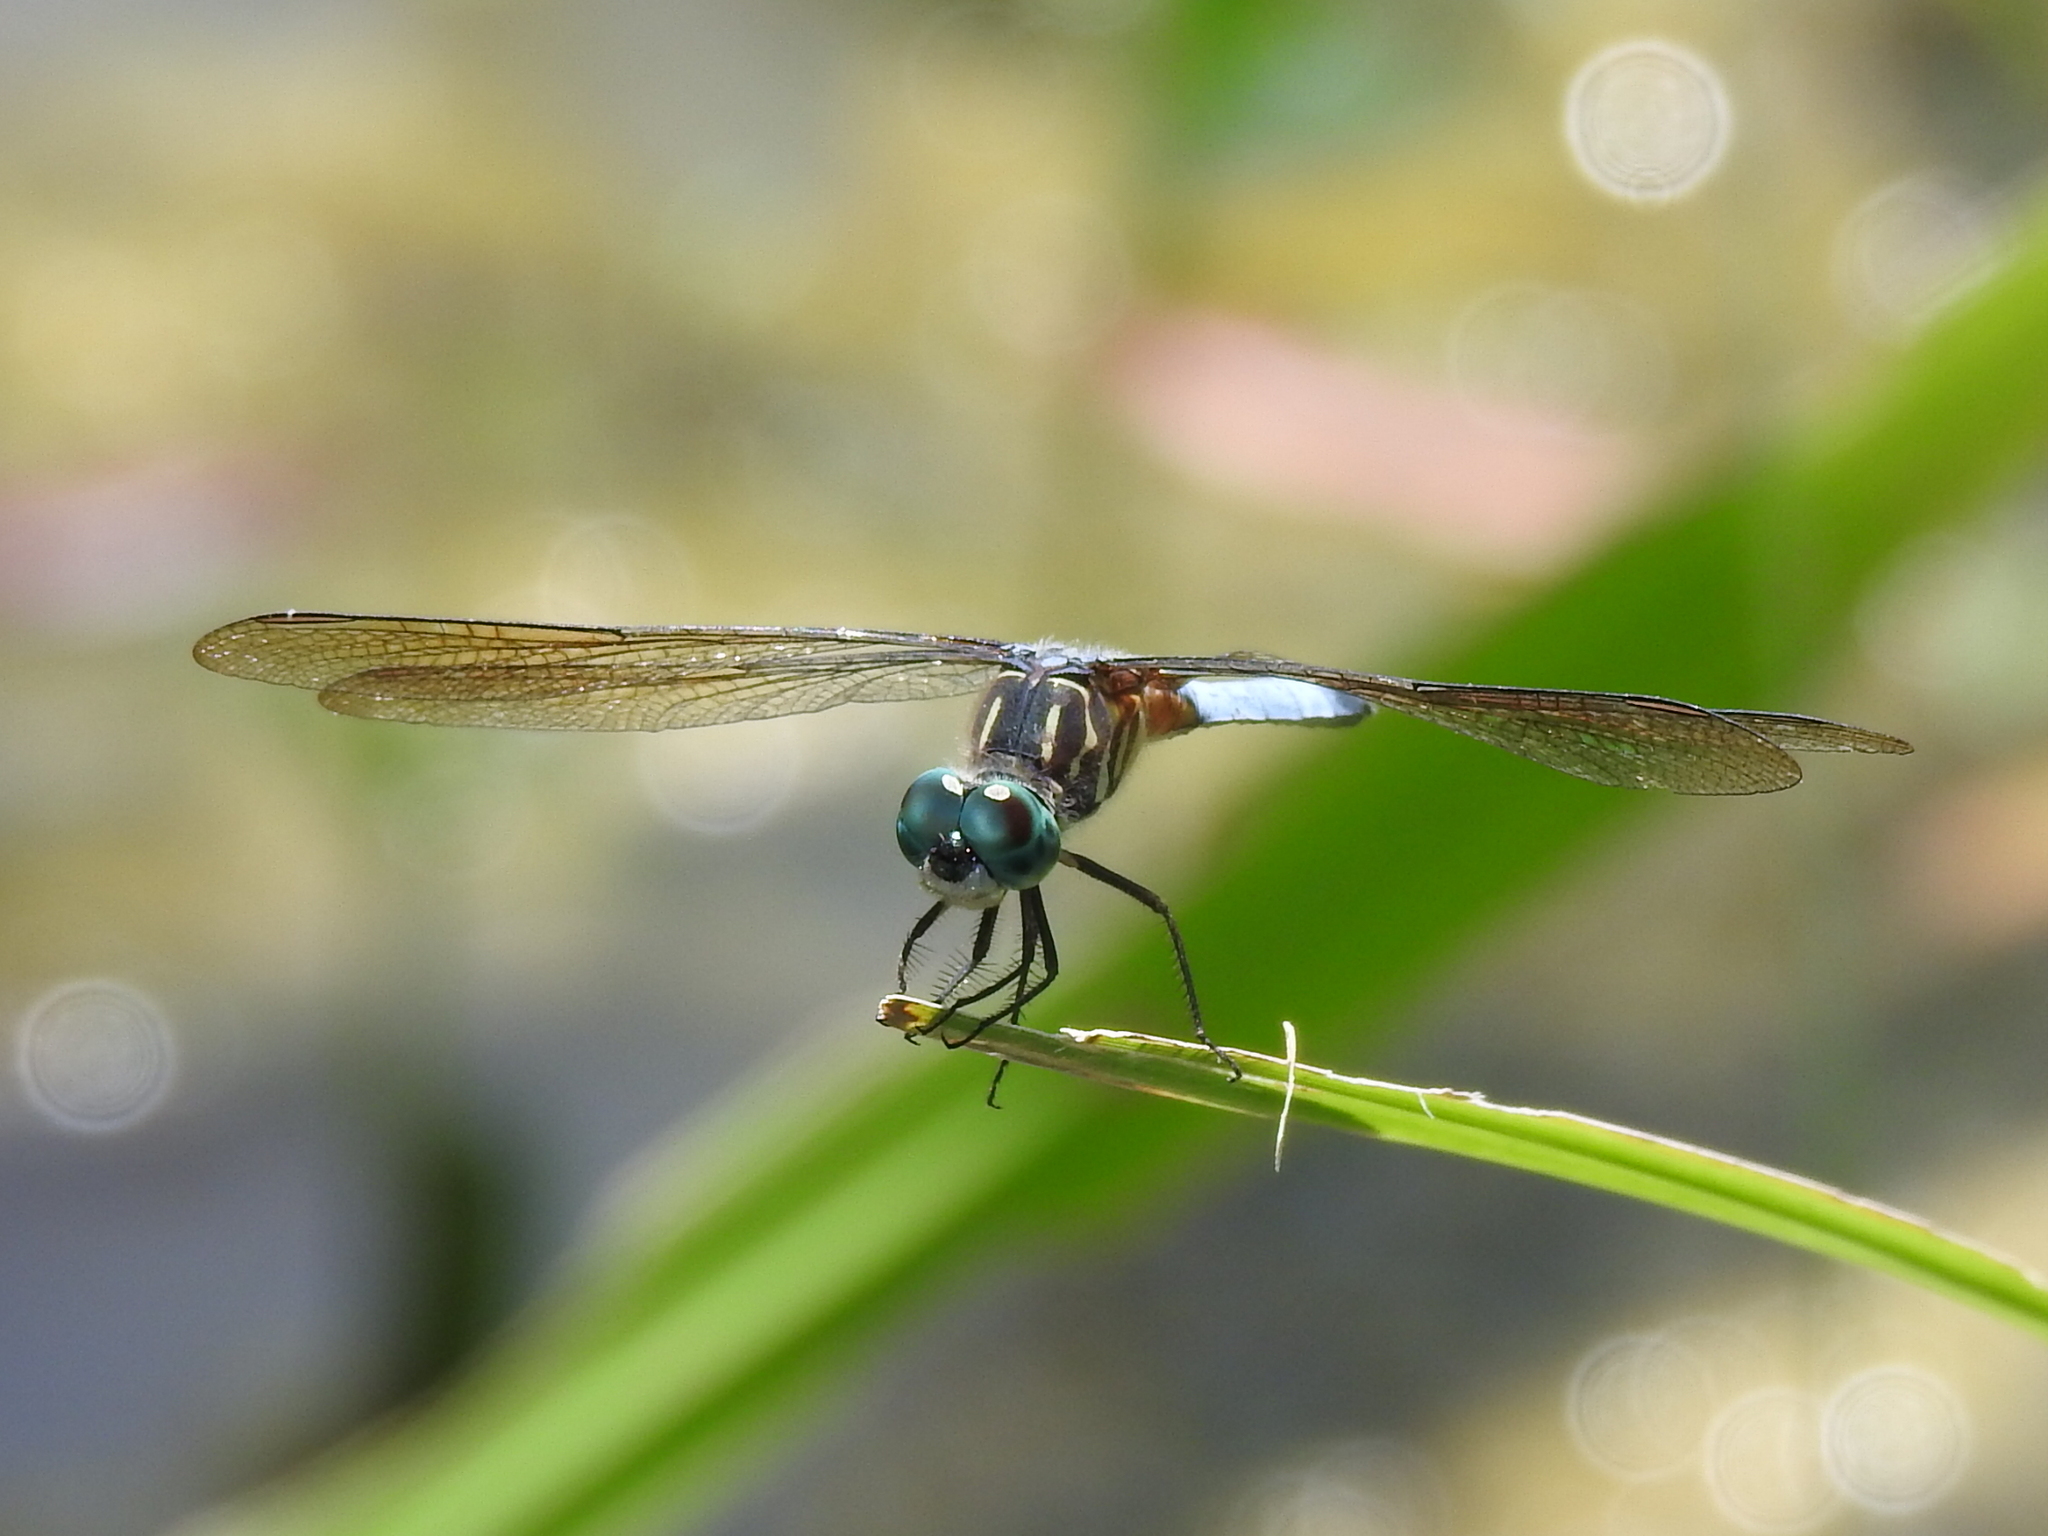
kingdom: Animalia
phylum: Arthropoda
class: Insecta
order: Odonata
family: Libellulidae
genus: Pachydiplax
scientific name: Pachydiplax longipennis
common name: Blue dasher
